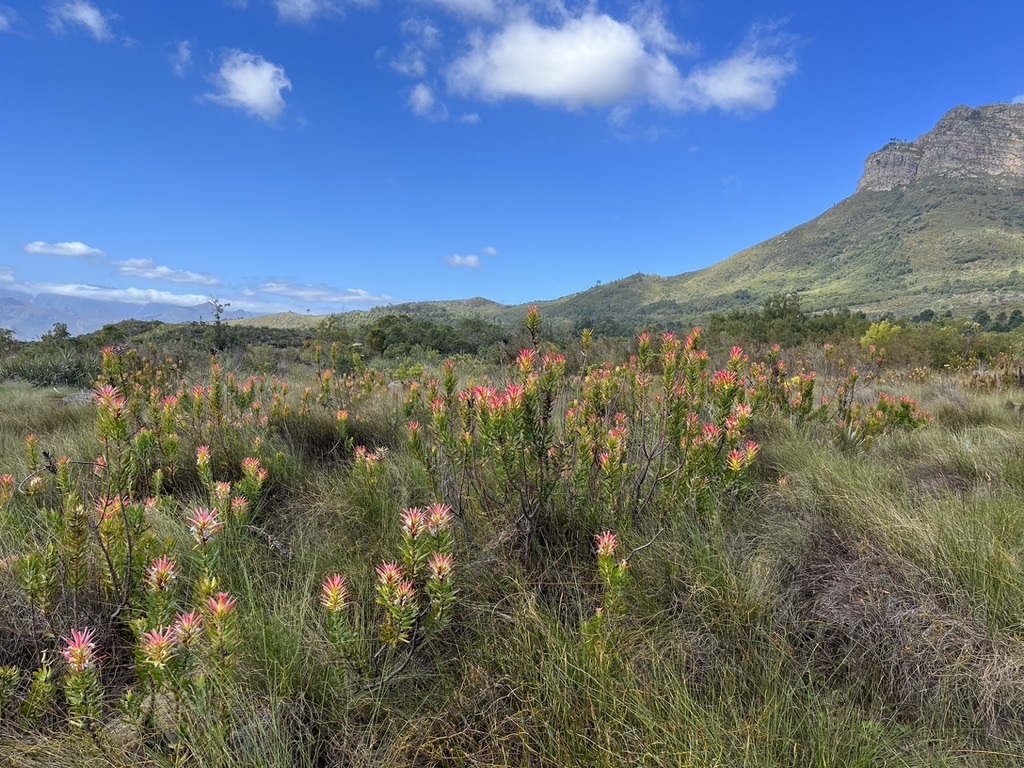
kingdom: Plantae
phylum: Tracheophyta
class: Magnoliopsida
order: Proteales
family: Proteaceae
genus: Mimetes
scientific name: Mimetes cucullatus
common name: Common pagoda
